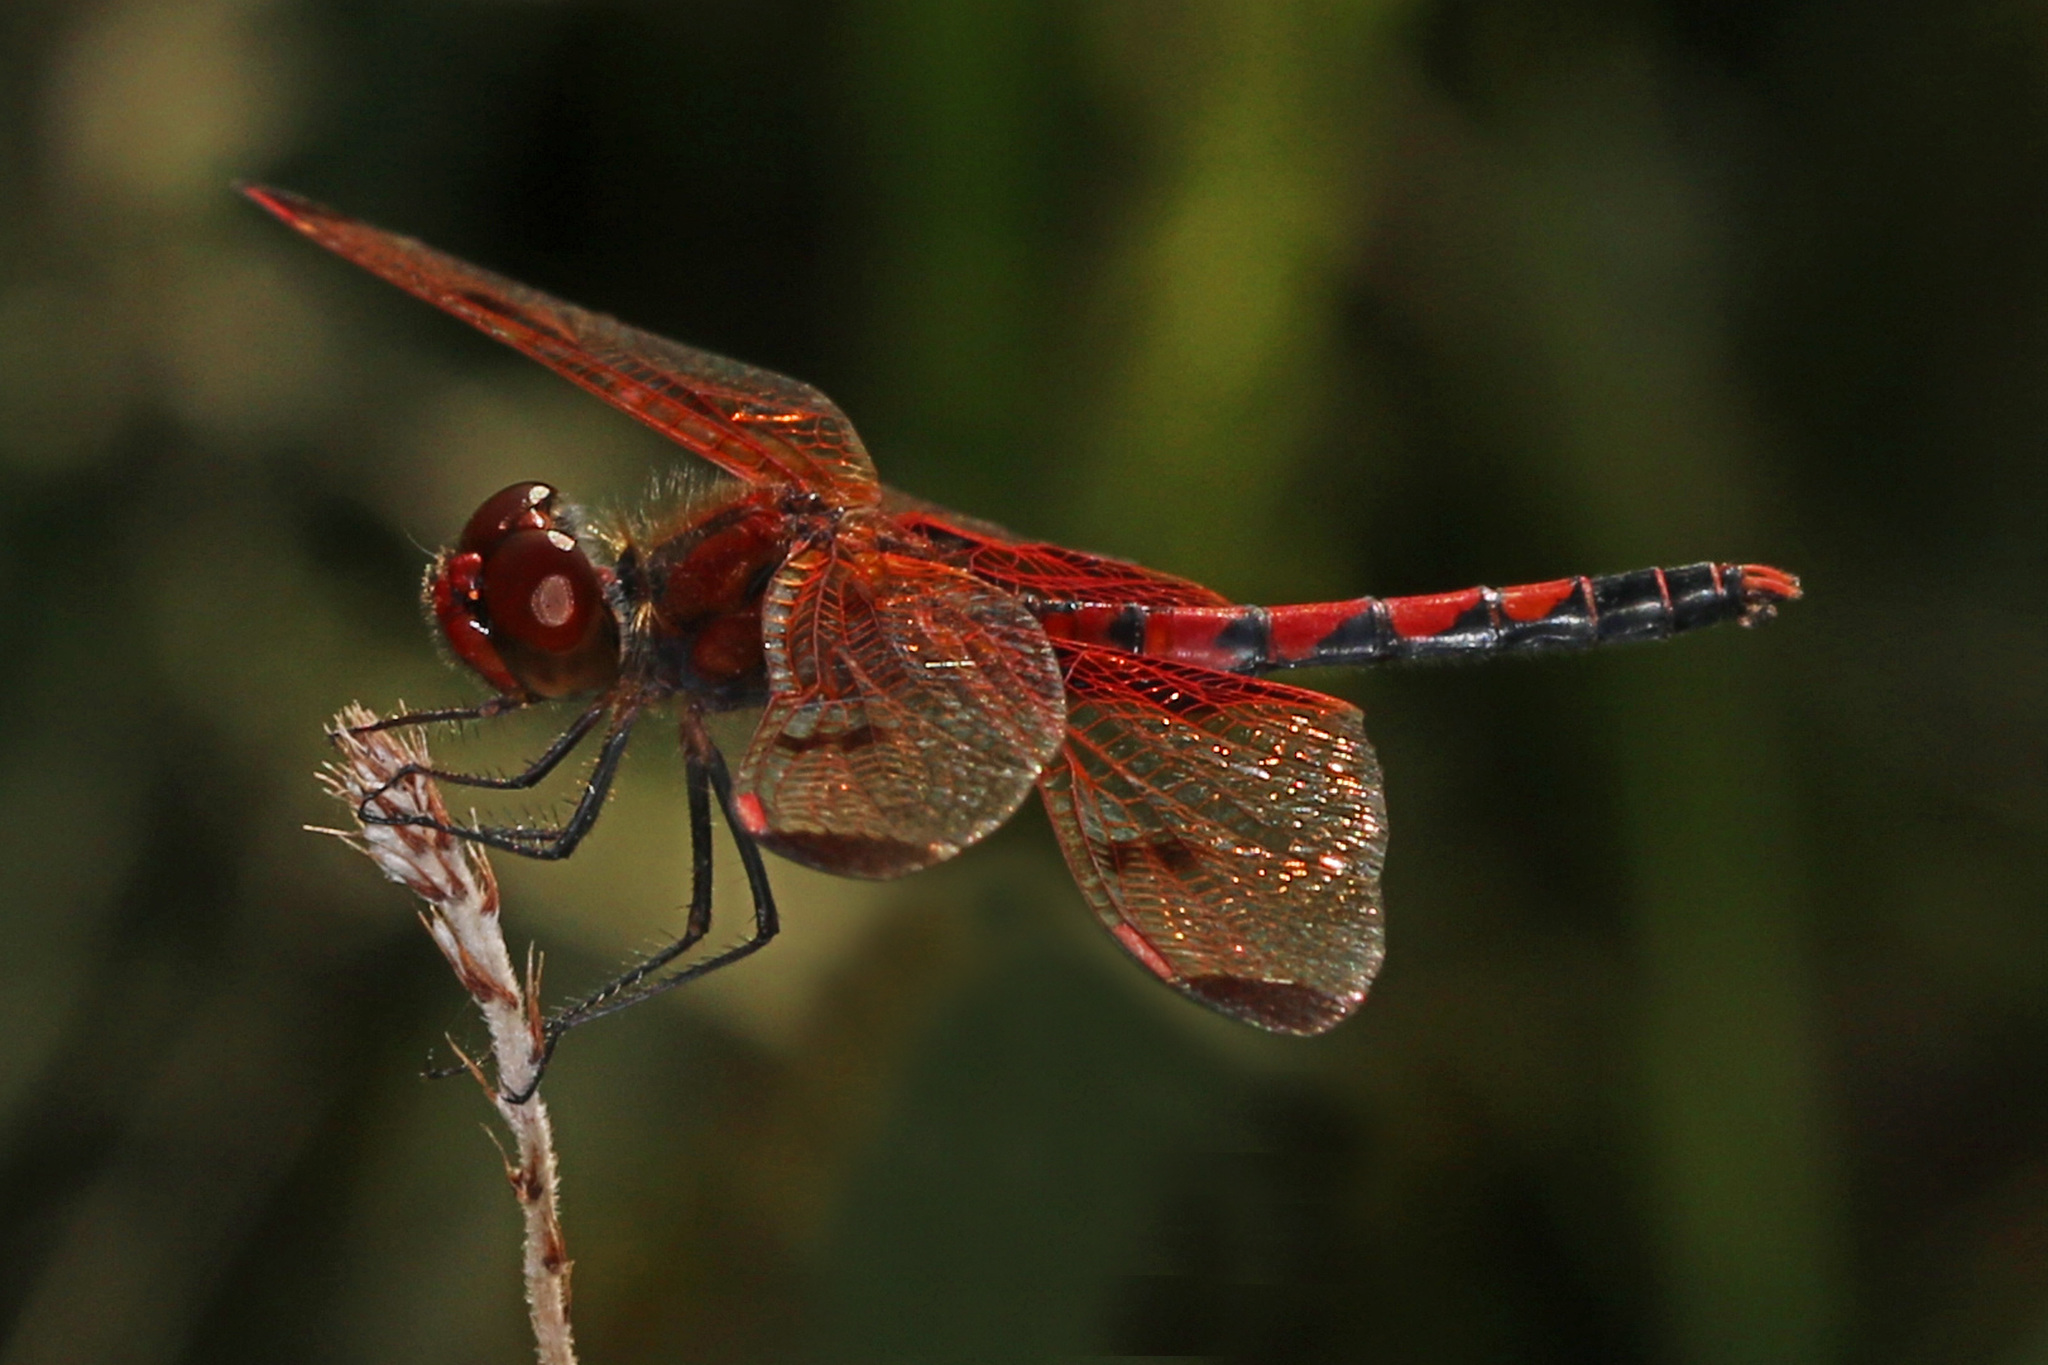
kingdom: Animalia
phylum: Arthropoda
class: Insecta
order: Odonata
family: Libellulidae
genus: Celithemis
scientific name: Celithemis elisa
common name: Calico pennant
